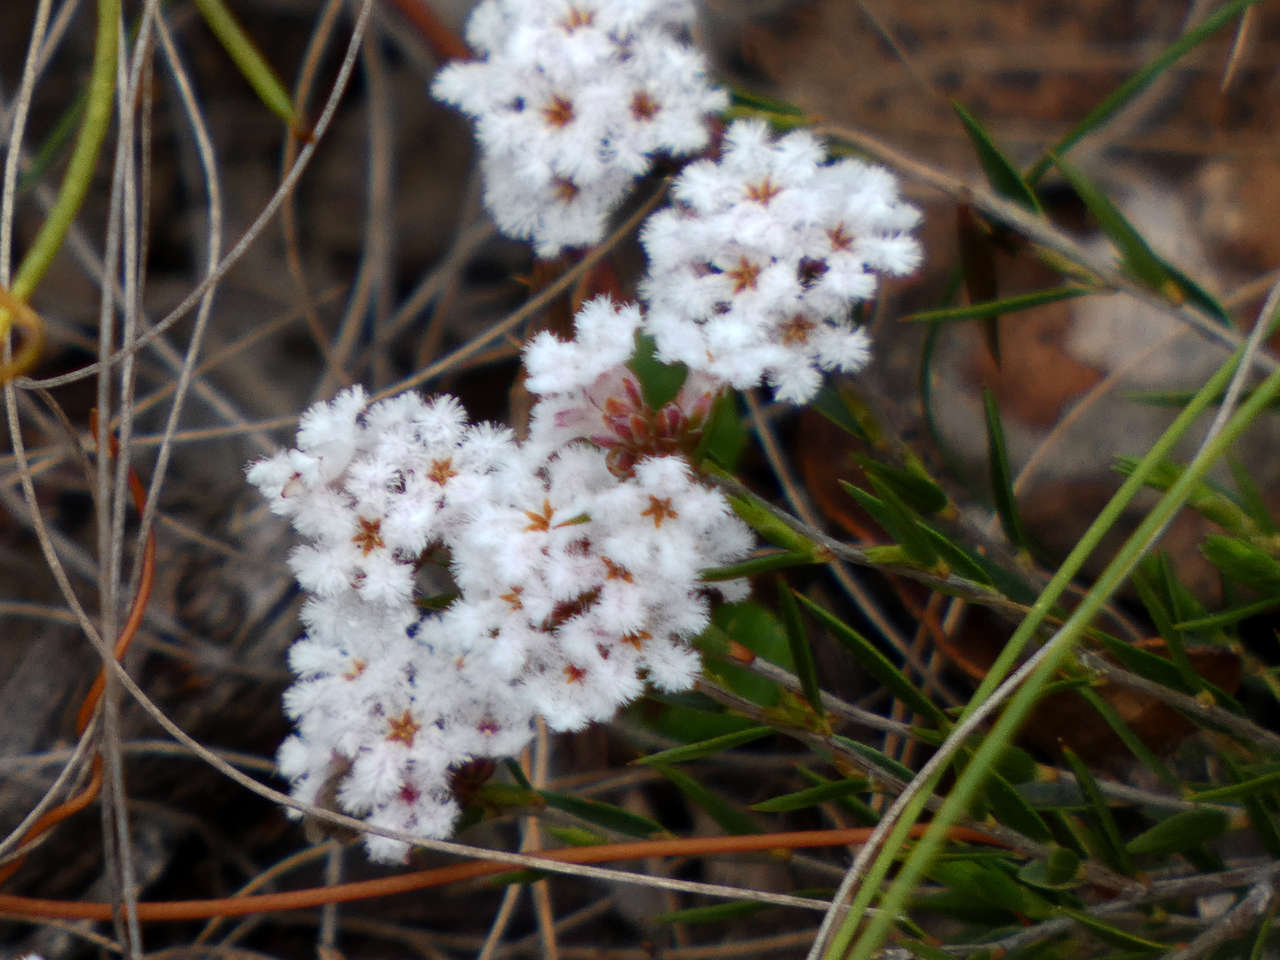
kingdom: Plantae
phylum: Tracheophyta
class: Magnoliopsida
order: Ericales
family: Ericaceae
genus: Leucopogon
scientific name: Leucopogon virgatus
